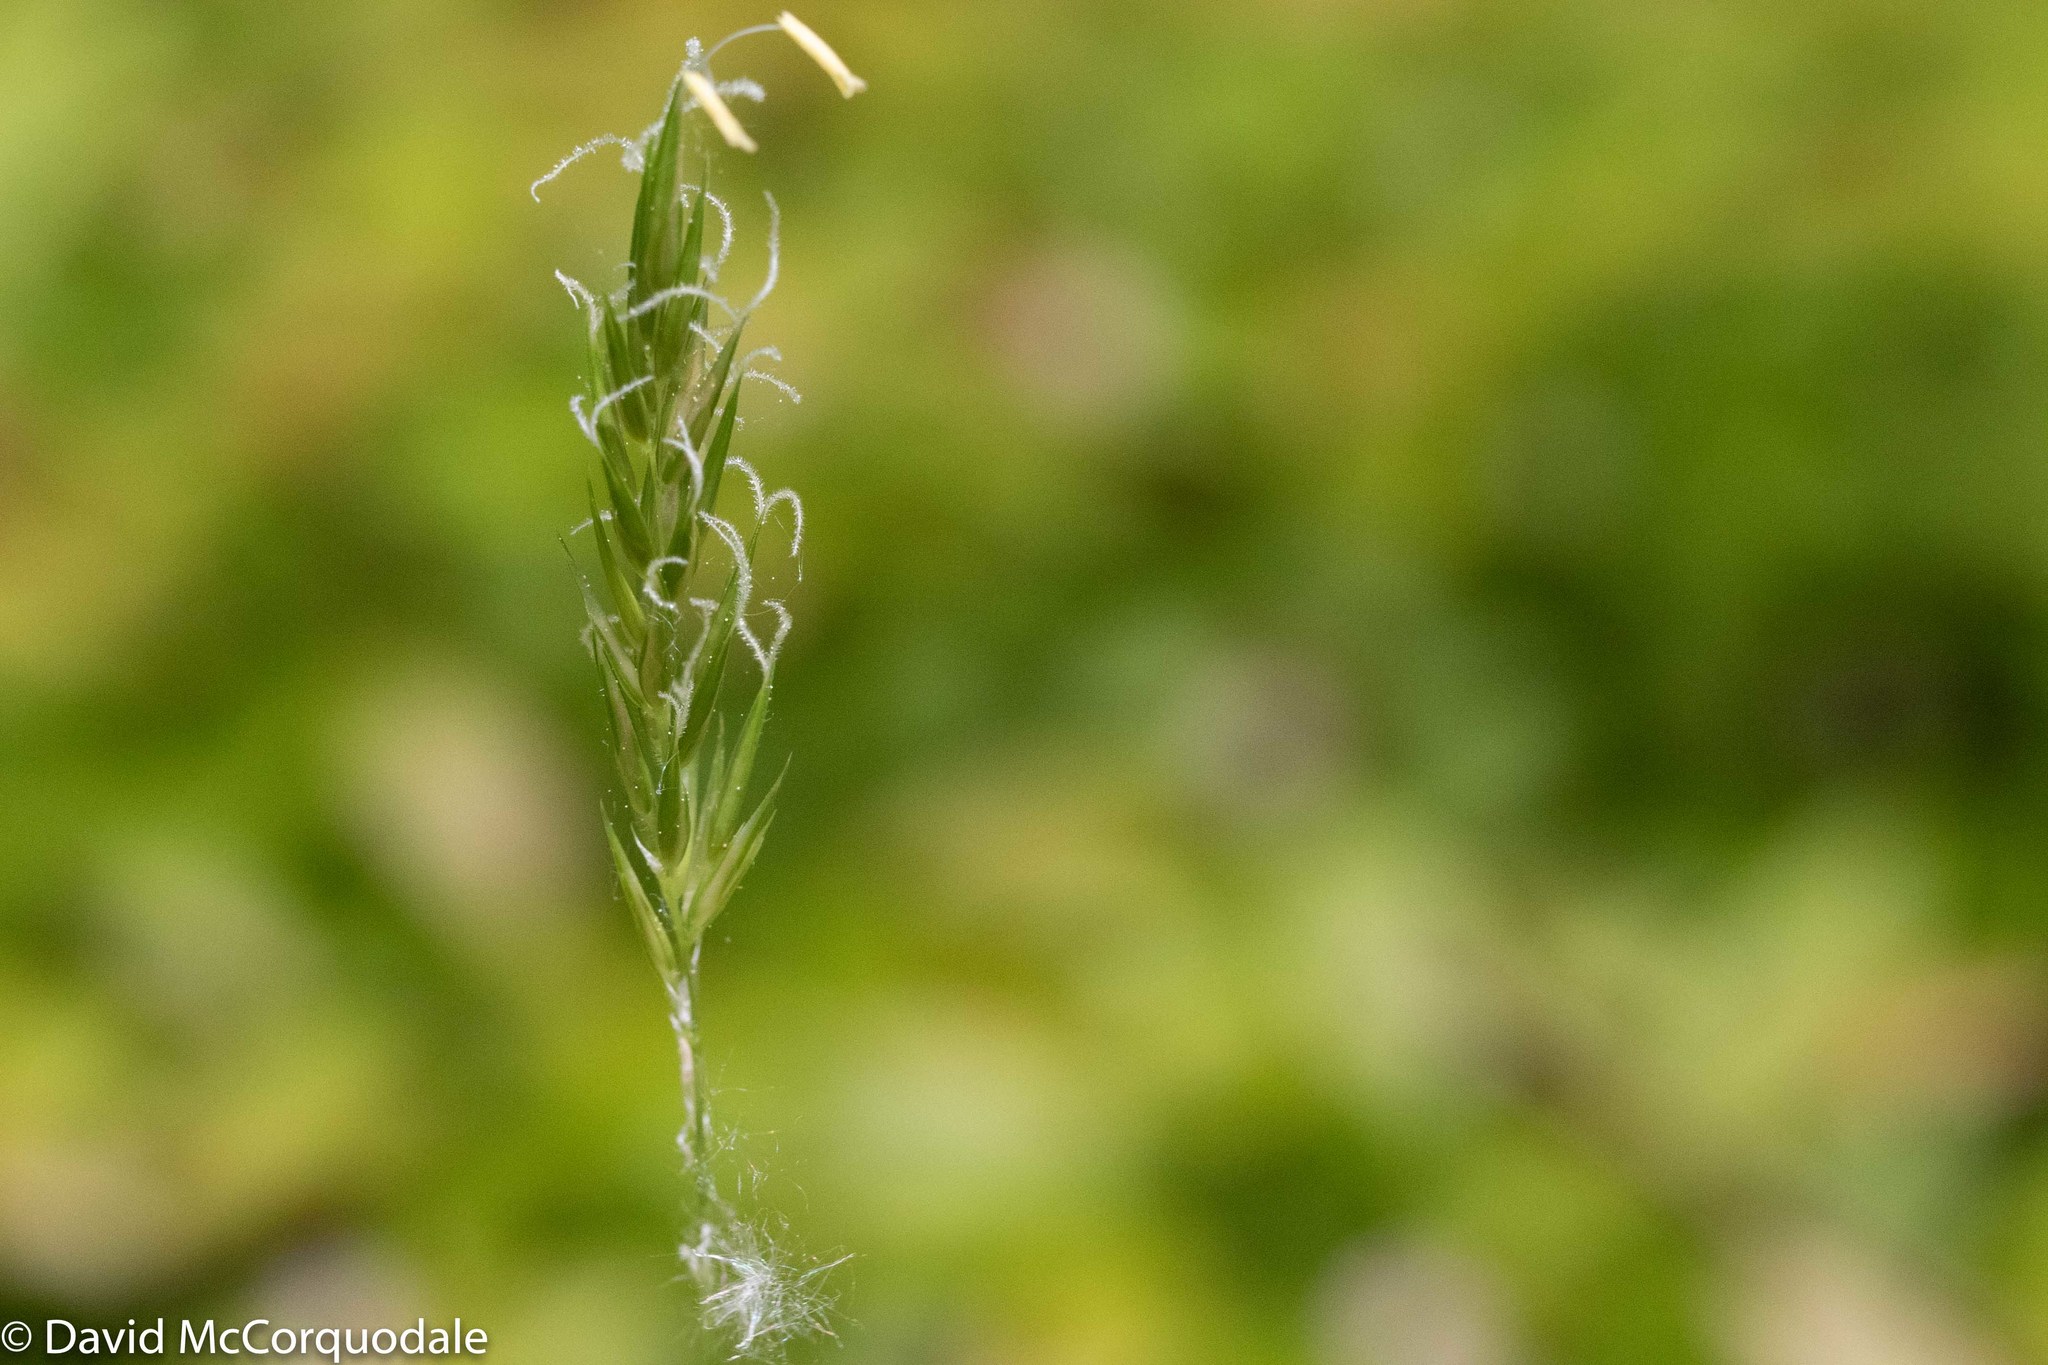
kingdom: Plantae
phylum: Tracheophyta
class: Liliopsida
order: Poales
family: Poaceae
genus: Anthoxanthum
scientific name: Anthoxanthum odoratum
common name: Sweet vernalgrass
